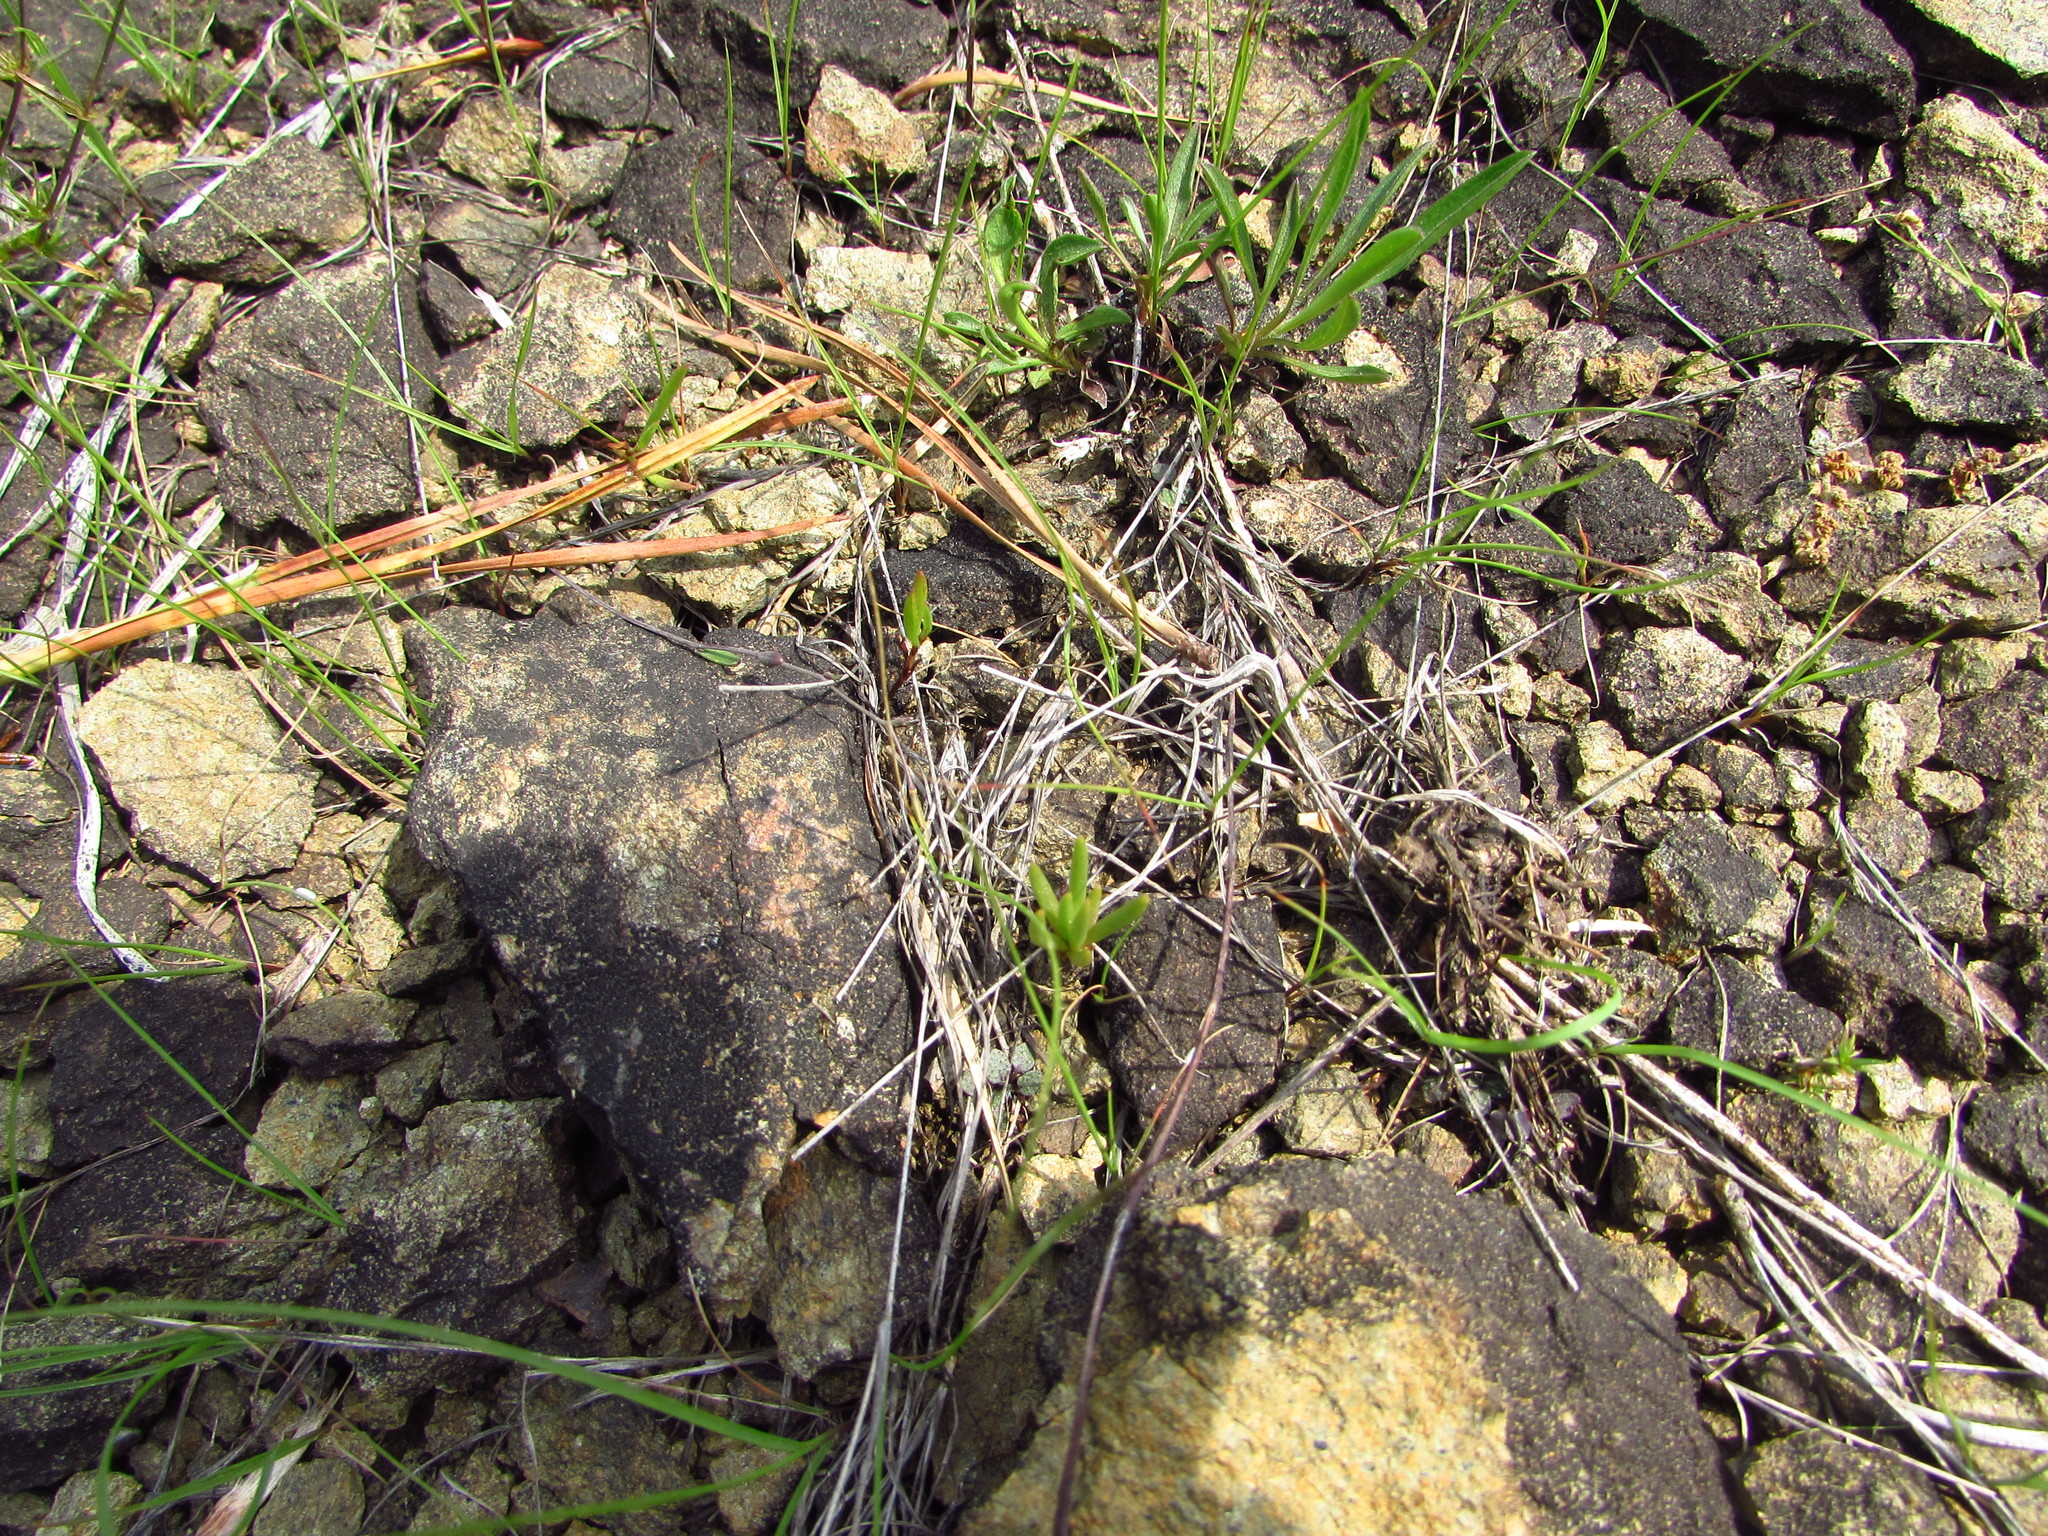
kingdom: Plantae
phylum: Tracheophyta
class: Magnoliopsida
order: Caryophyllales
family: Montiaceae
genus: Phemeranthus
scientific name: Phemeranthus teretifolius
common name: Quill fameflower
